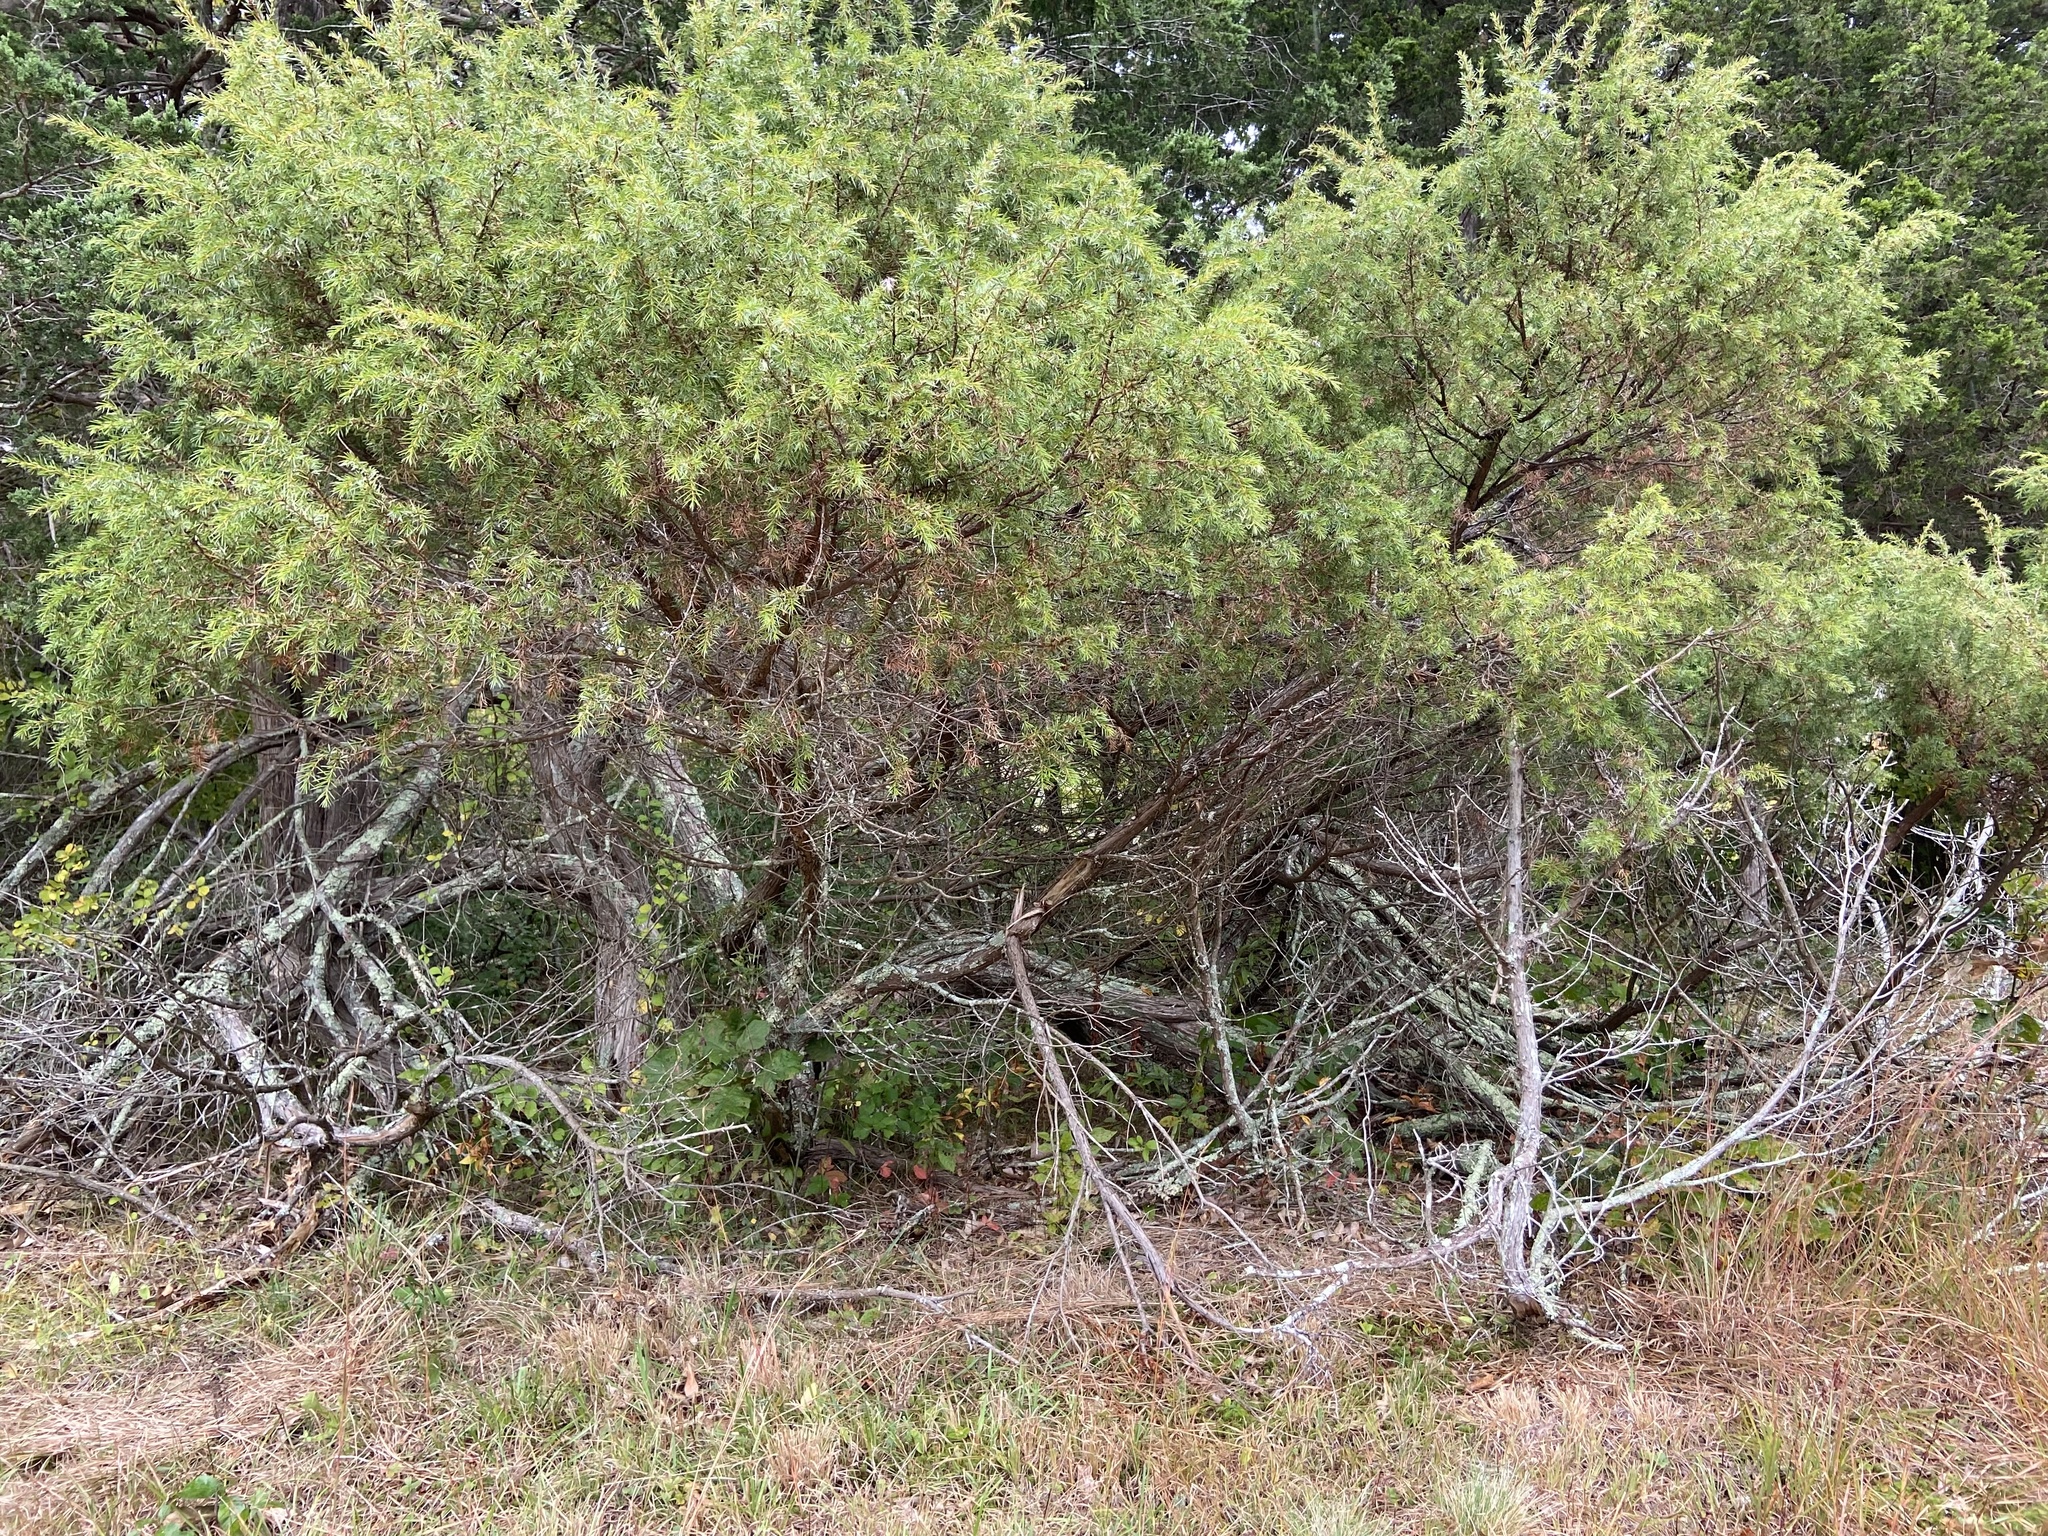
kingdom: Plantae
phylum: Tracheophyta
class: Pinopsida
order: Pinales
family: Cupressaceae
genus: Juniperus
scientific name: Juniperus communis
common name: Common juniper
